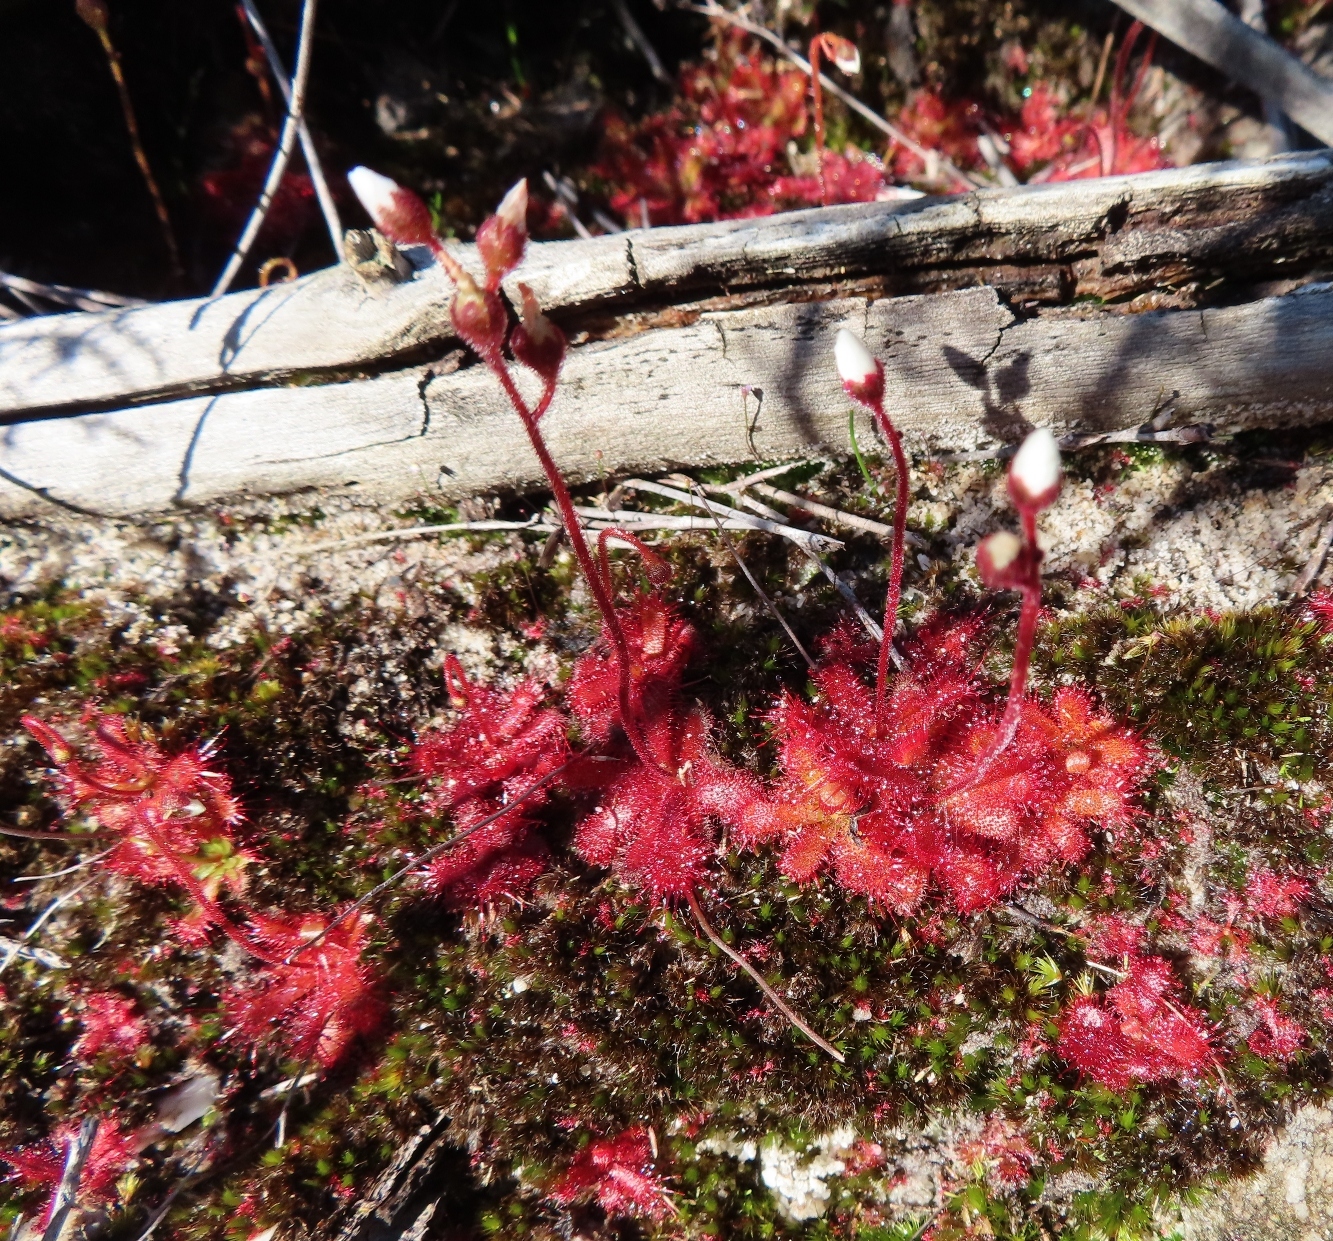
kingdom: Plantae
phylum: Tracheophyta
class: Magnoliopsida
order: Caryophyllales
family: Droseraceae
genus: Drosera
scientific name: Drosera trinervia
